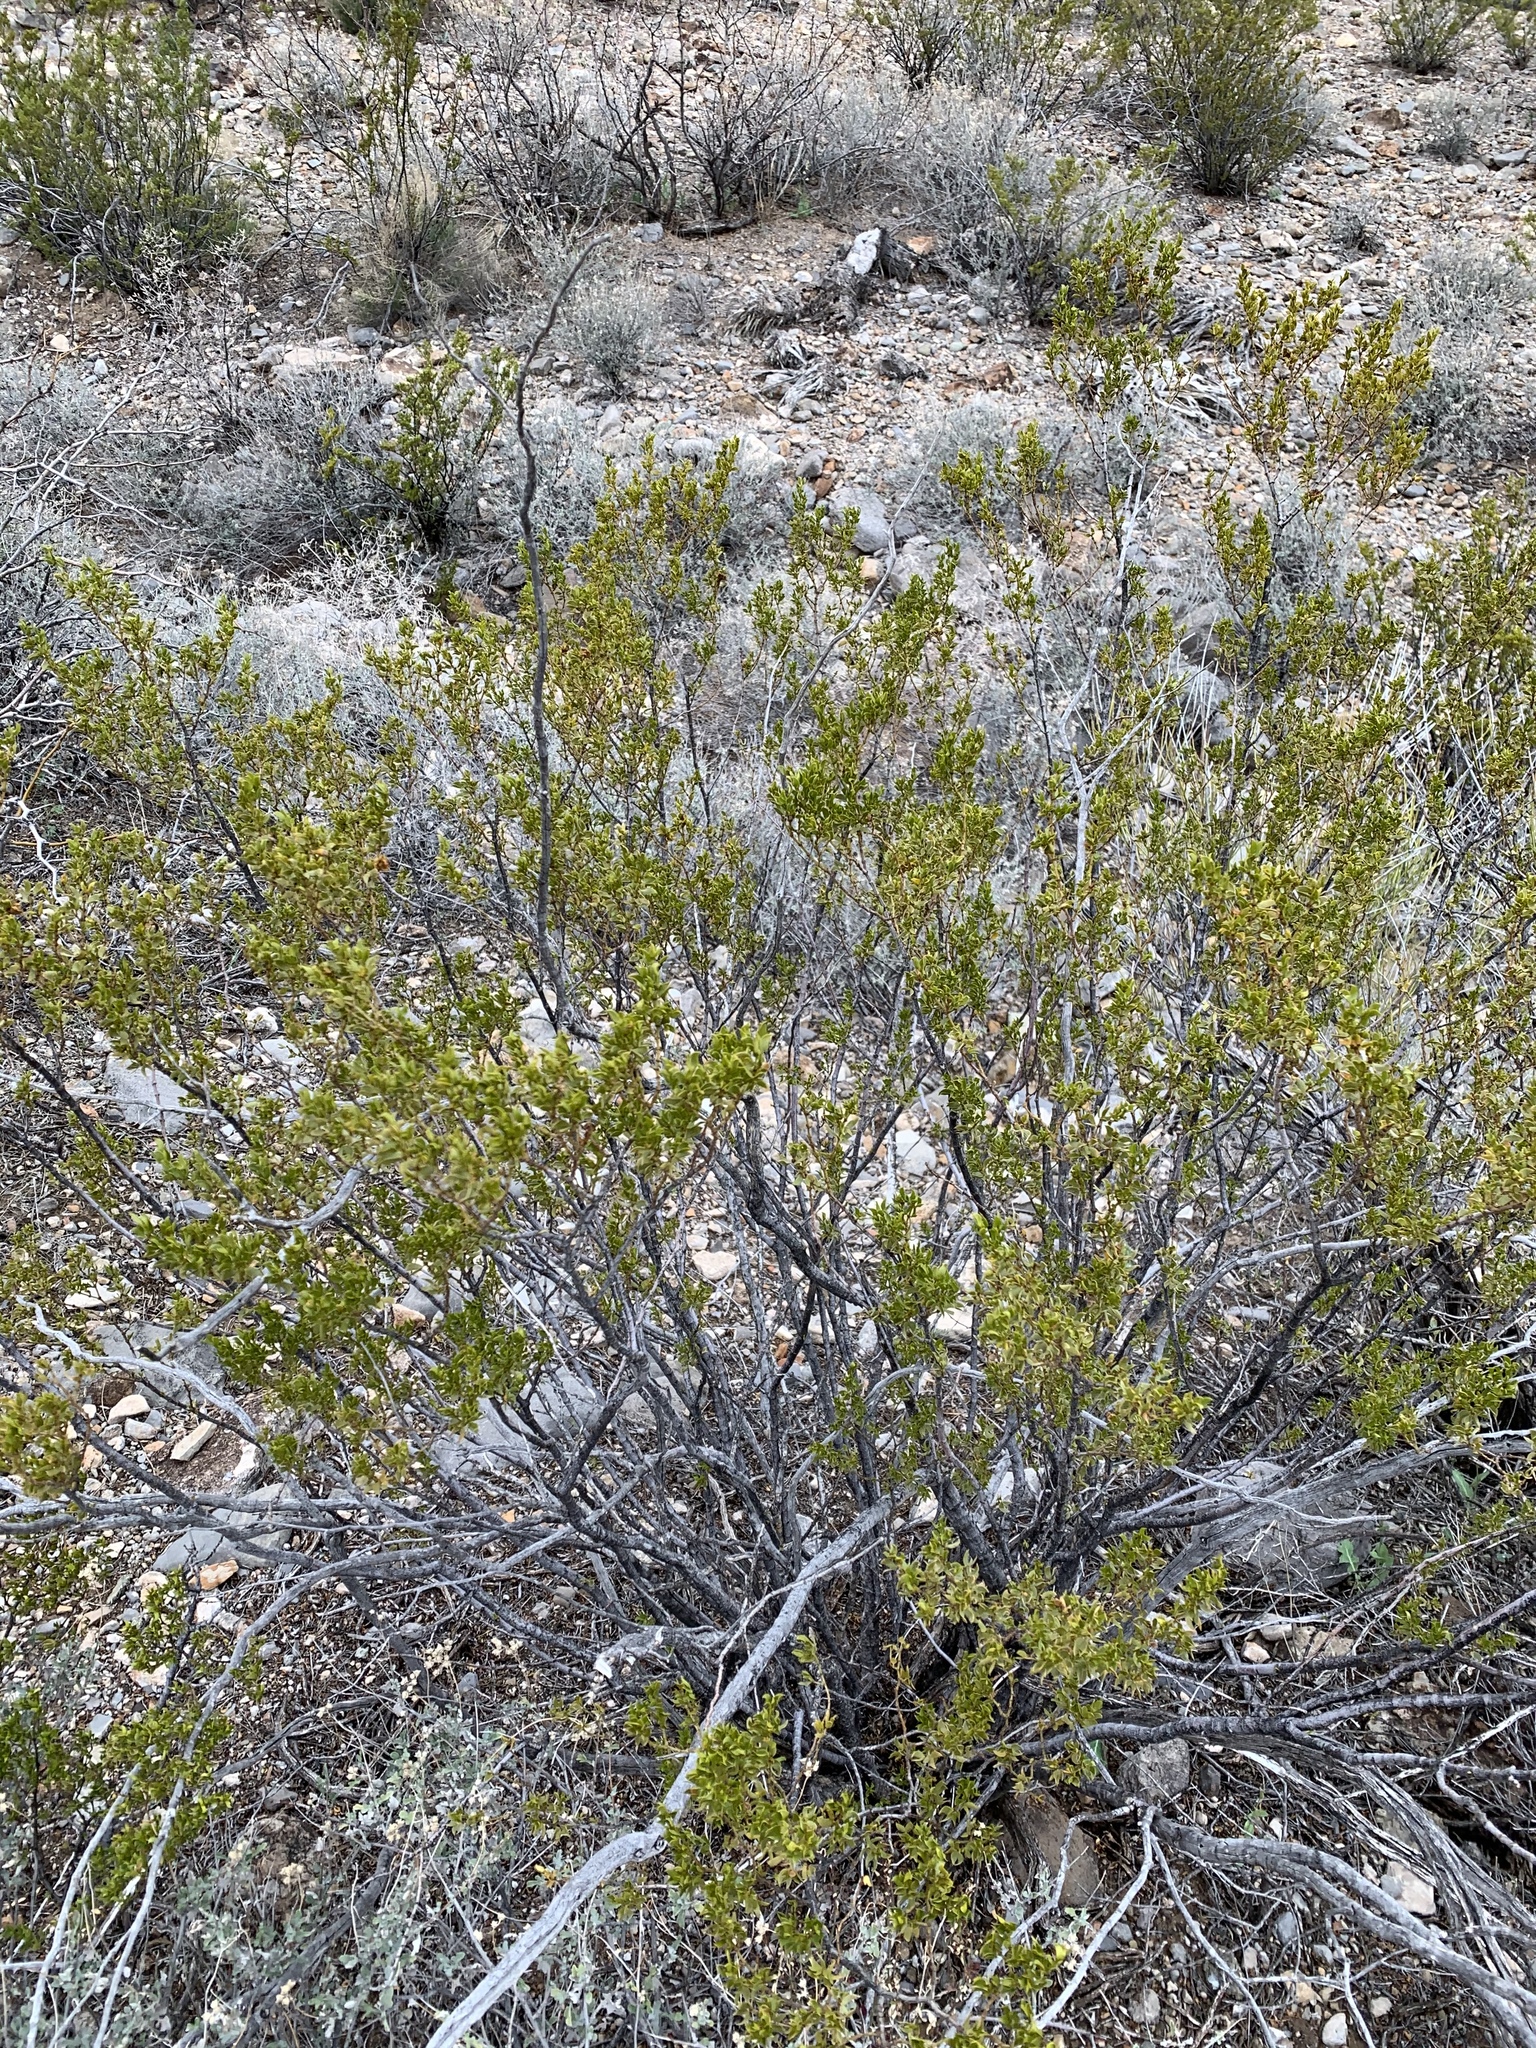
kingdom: Plantae
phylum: Tracheophyta
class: Magnoliopsida
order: Zygophyllales
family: Zygophyllaceae
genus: Larrea
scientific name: Larrea tridentata
